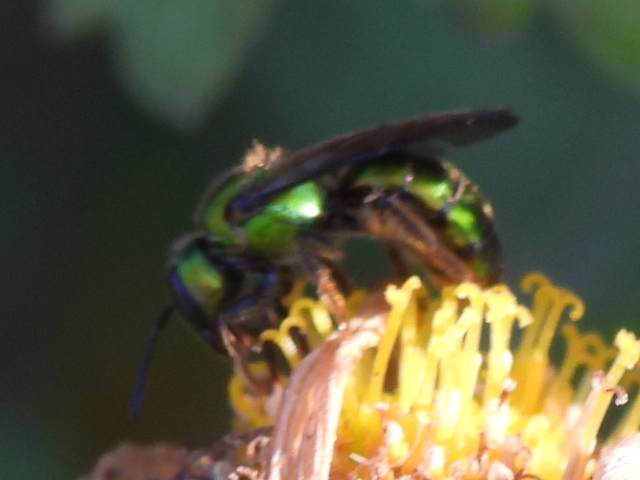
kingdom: Animalia
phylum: Arthropoda
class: Insecta
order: Hymenoptera
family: Halictidae
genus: Augochlora
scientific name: Augochlora pura
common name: Pure green sweat bee
